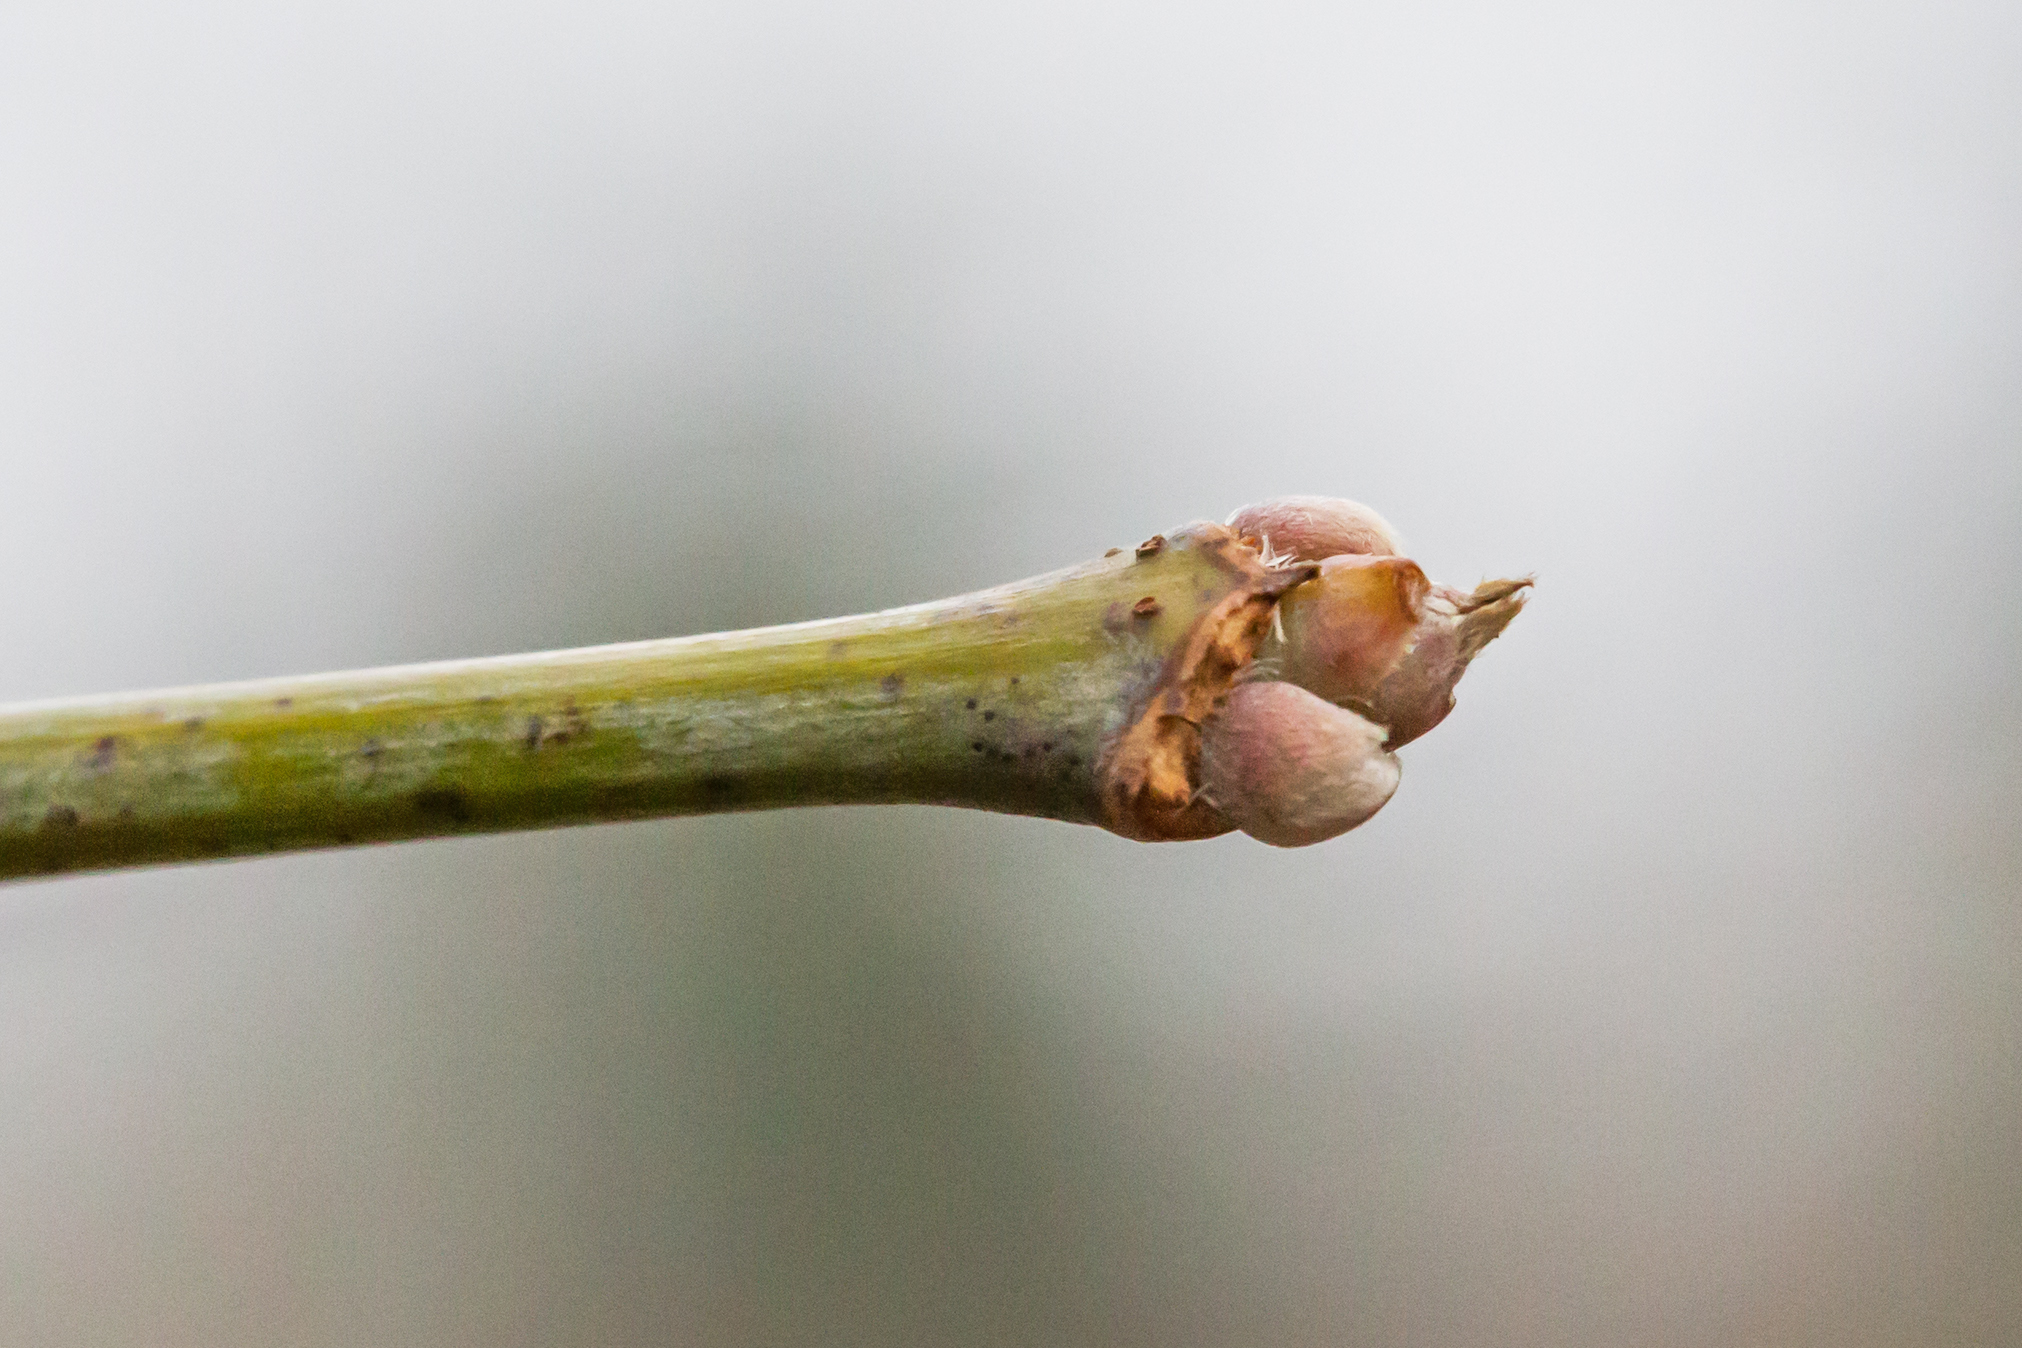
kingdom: Plantae
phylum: Tracheophyta
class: Magnoliopsida
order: Sapindales
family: Sapindaceae
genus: Acer
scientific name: Acer negundo
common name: Ashleaf maple
